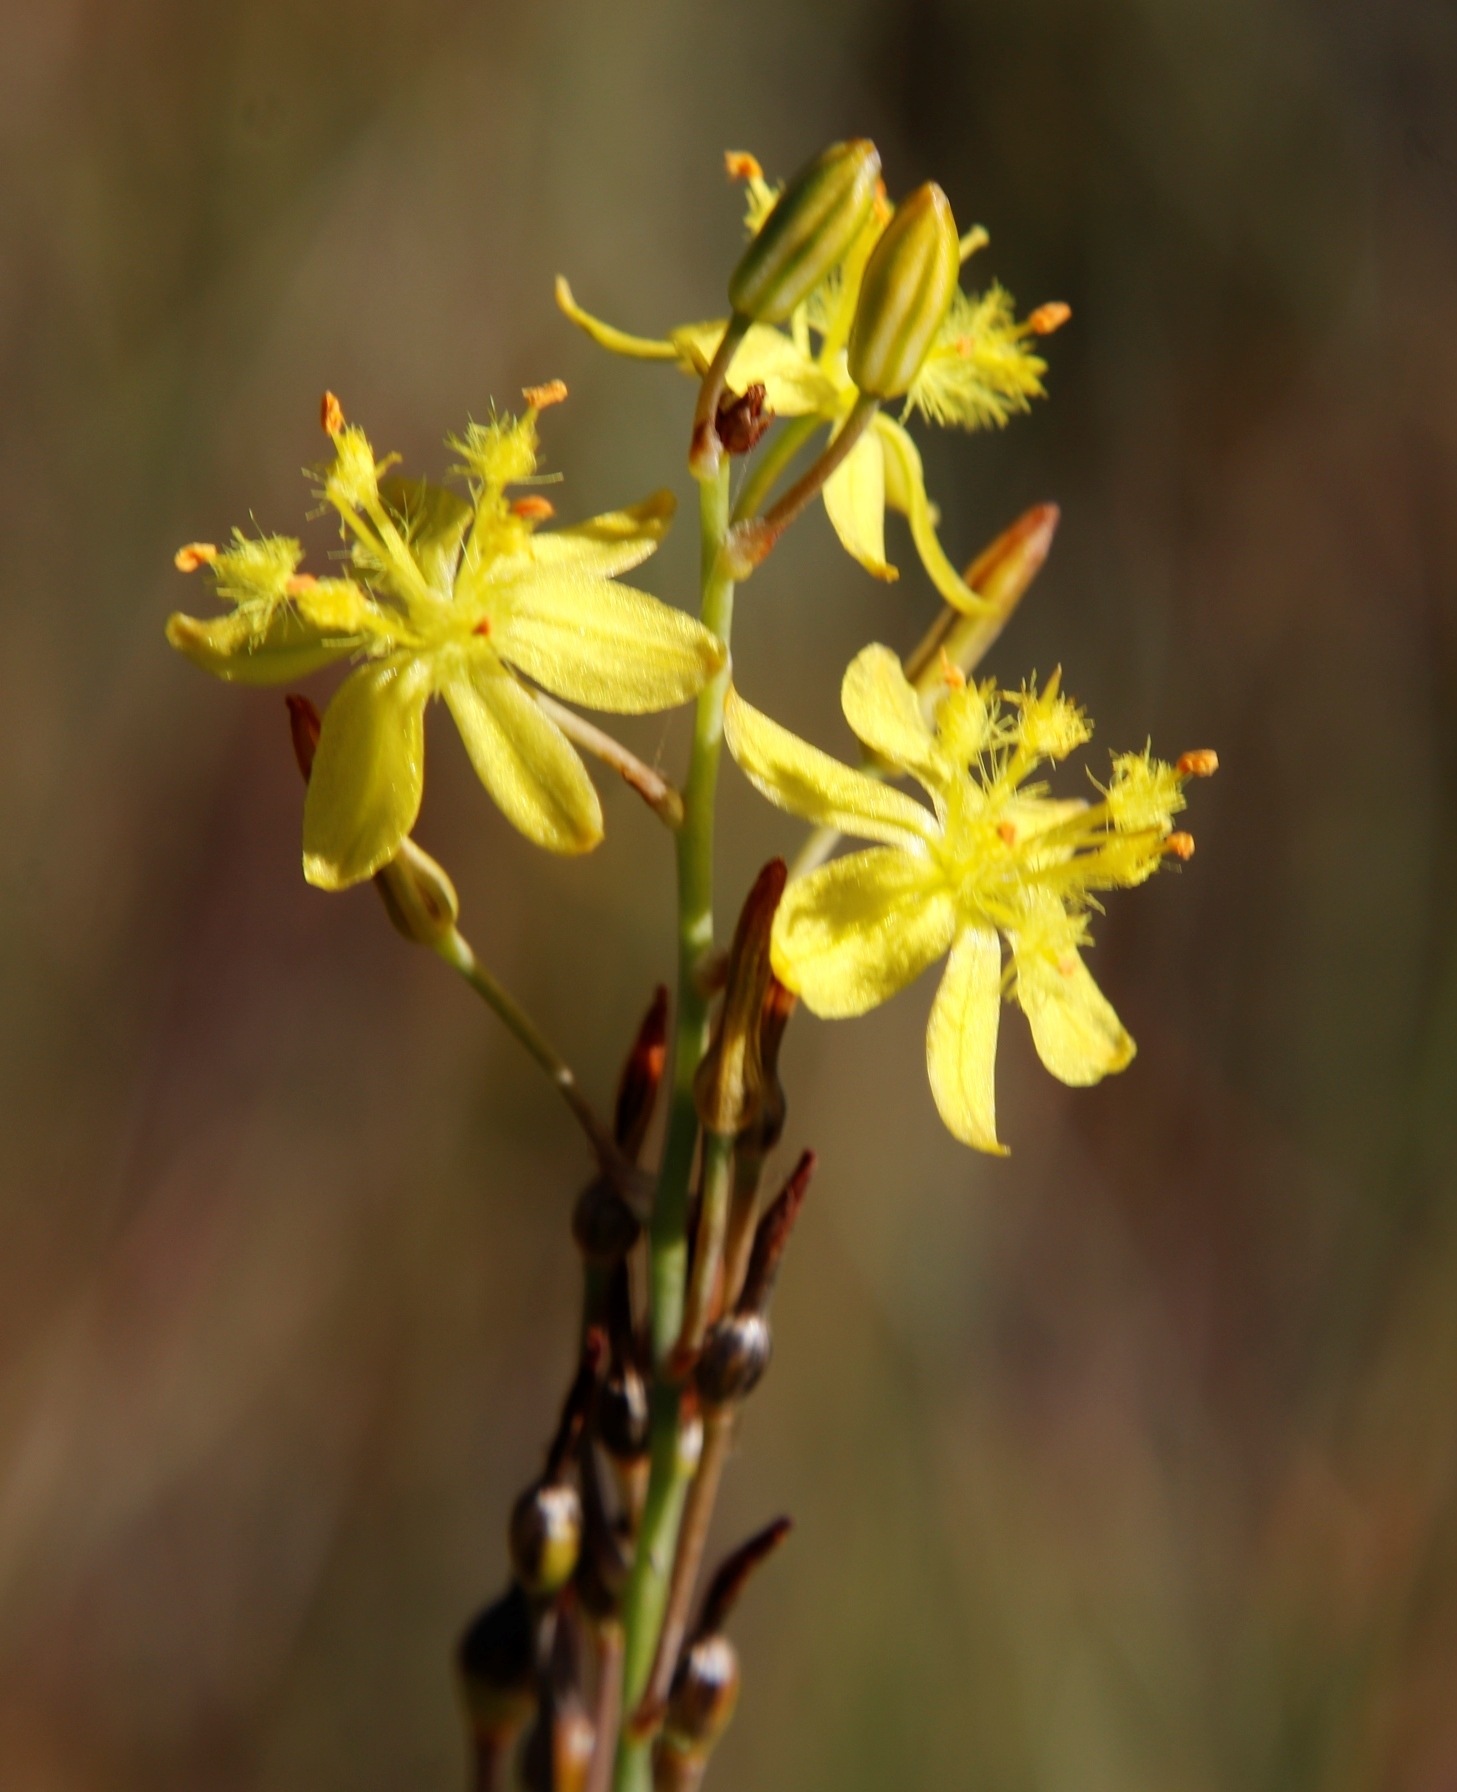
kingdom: Plantae
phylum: Tracheophyta
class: Liliopsida
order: Asparagales
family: Asphodelaceae
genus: Bulbine
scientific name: Bulbine favosa
